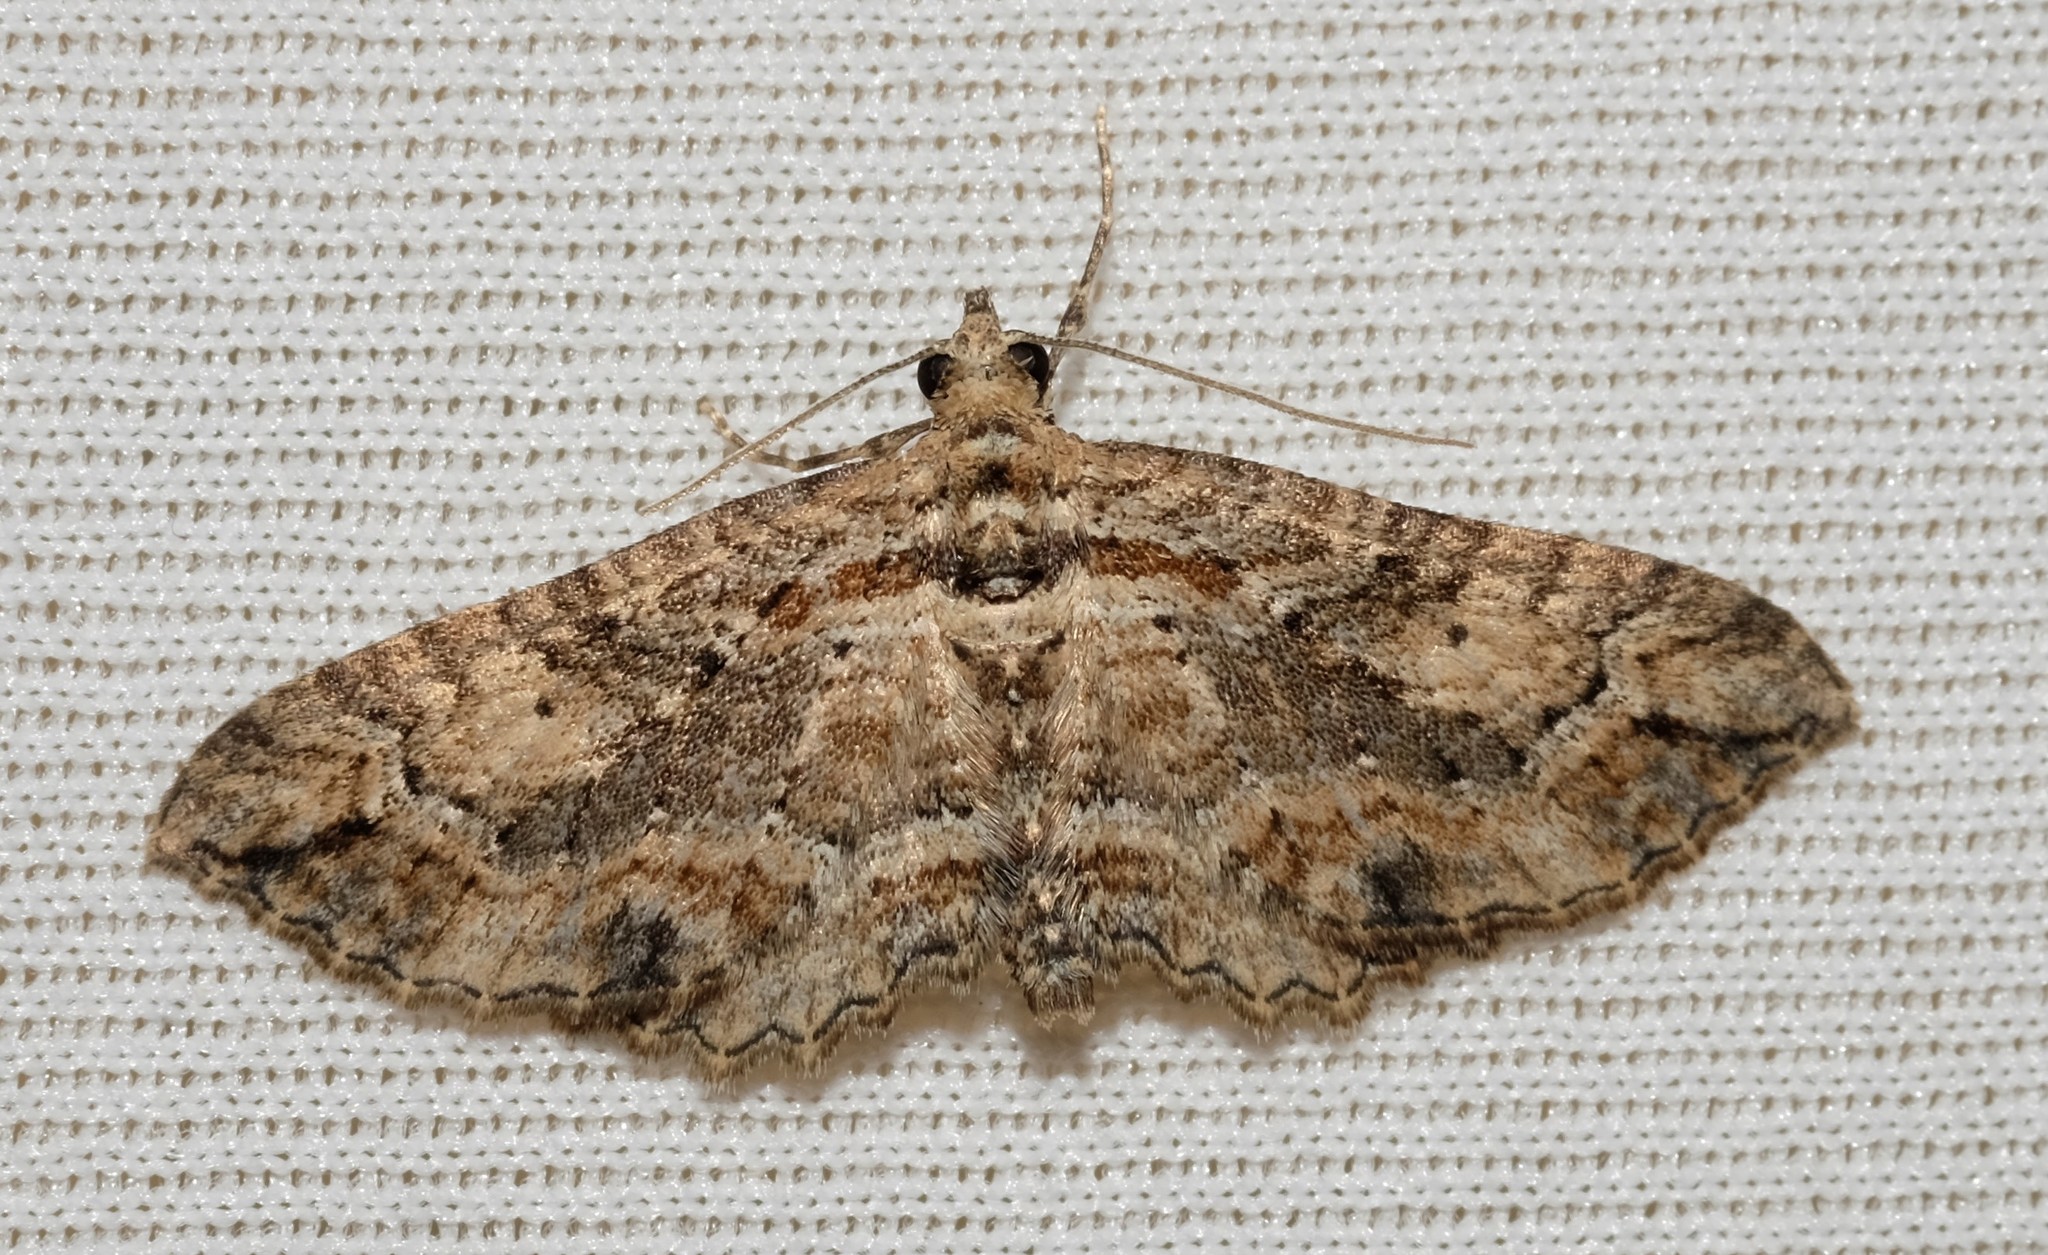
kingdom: Animalia
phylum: Arthropoda
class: Insecta
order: Lepidoptera
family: Geometridae
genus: Horisme
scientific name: Horisme plagiographa
